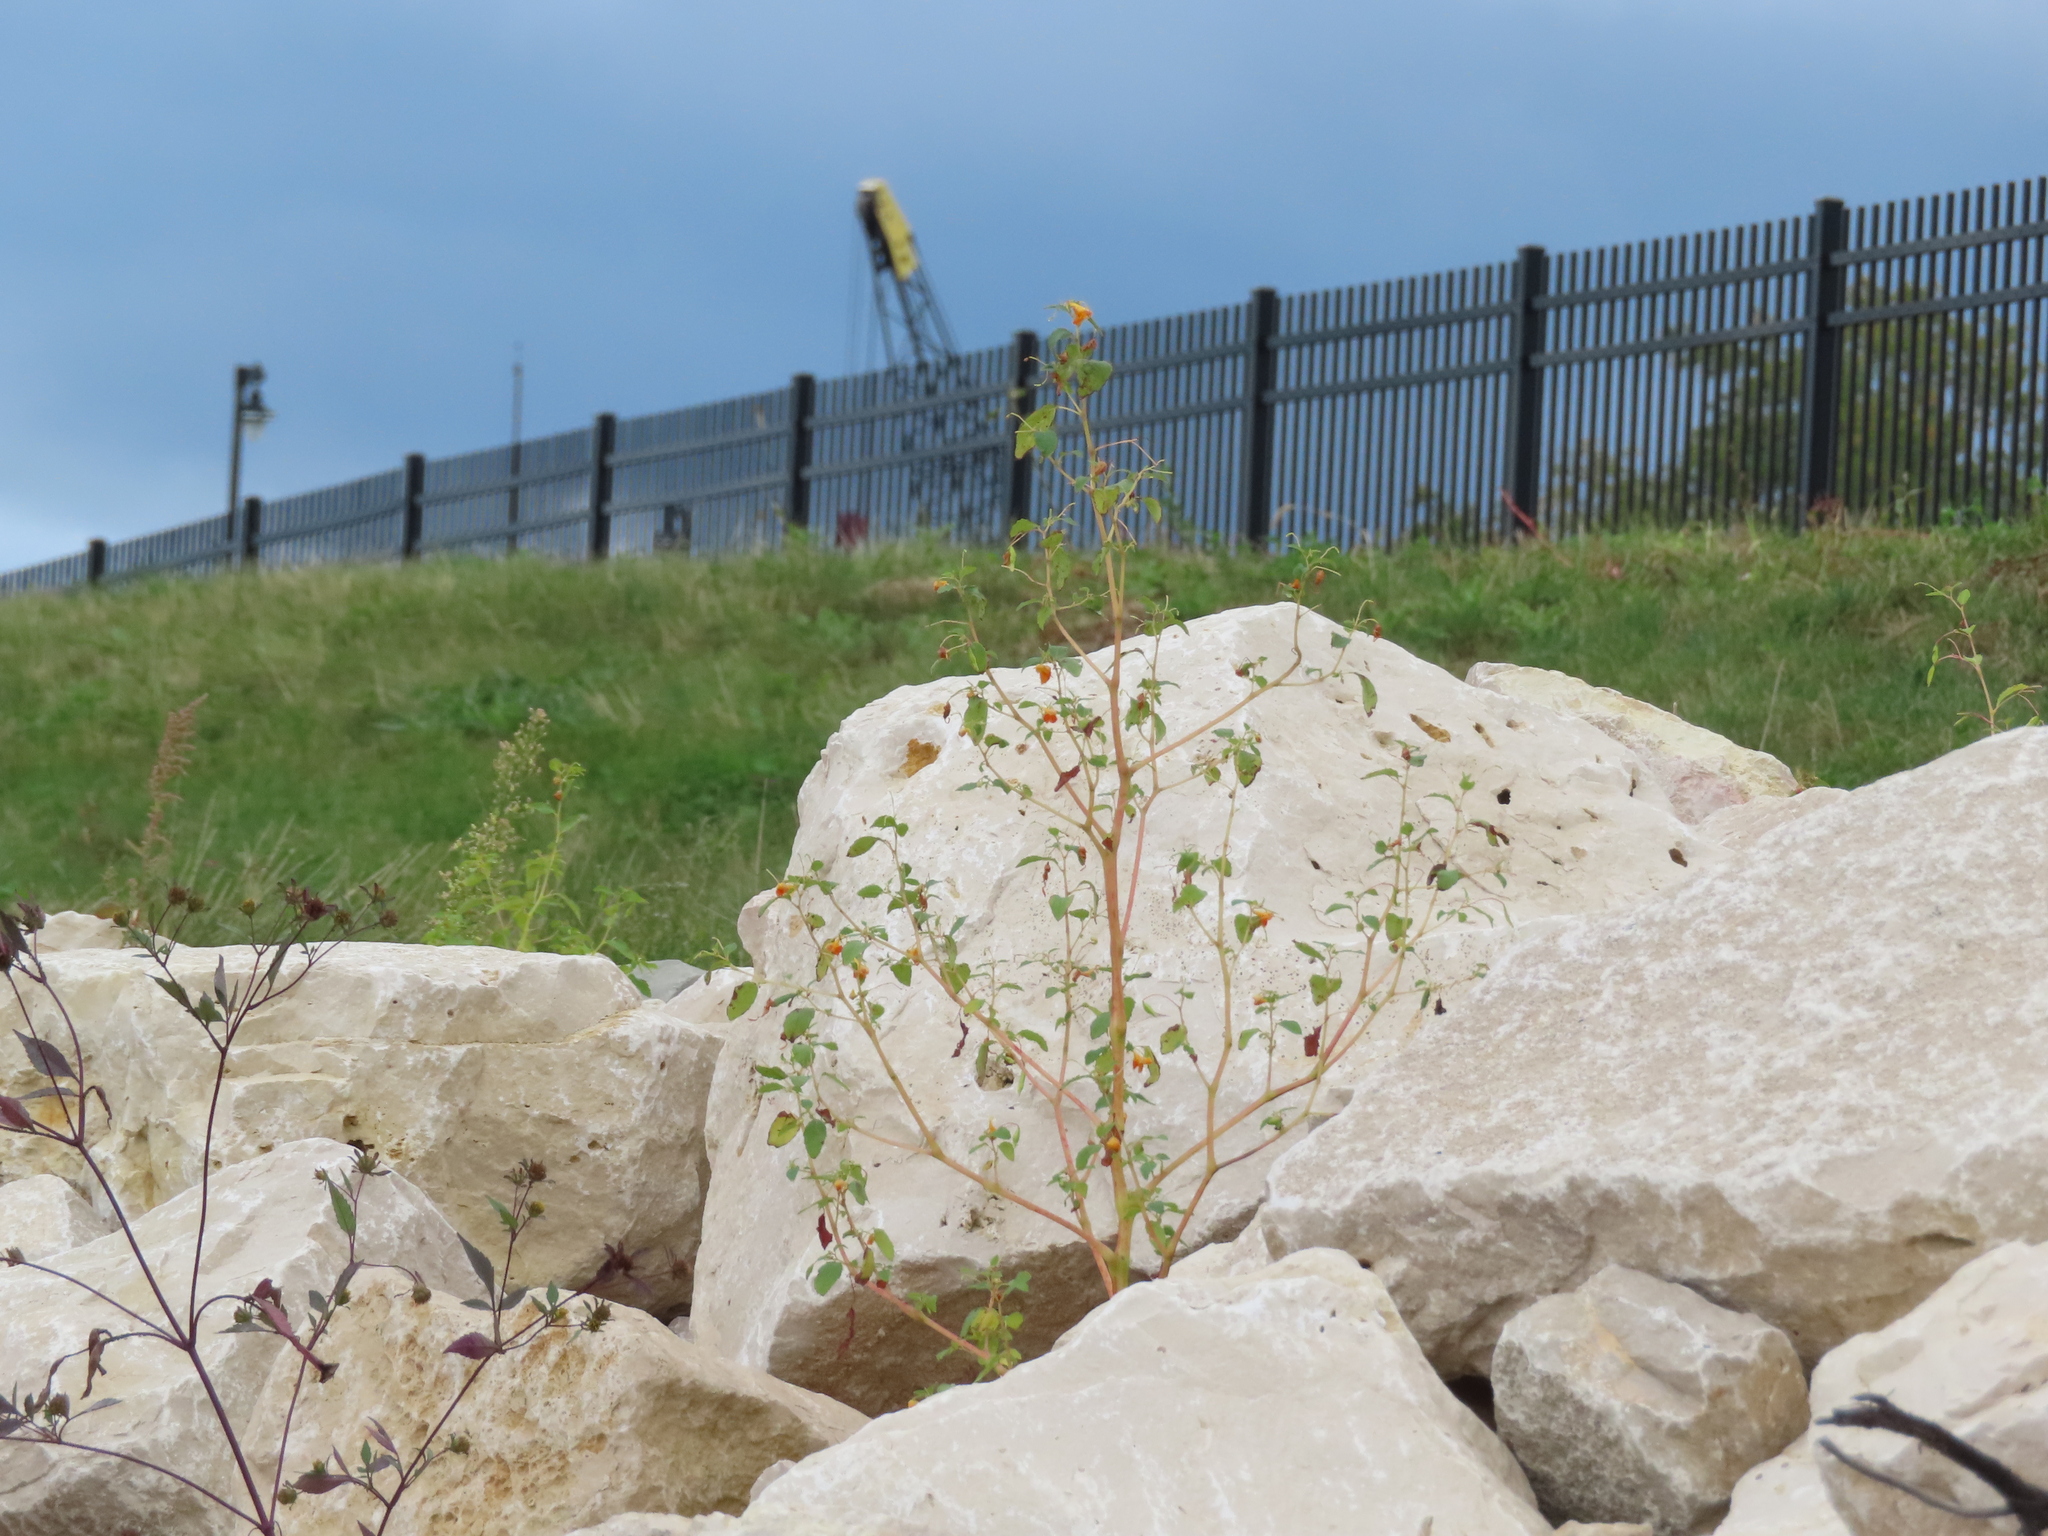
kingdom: Plantae
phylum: Tracheophyta
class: Magnoliopsida
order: Ericales
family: Balsaminaceae
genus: Impatiens
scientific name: Impatiens capensis
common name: Orange balsam
